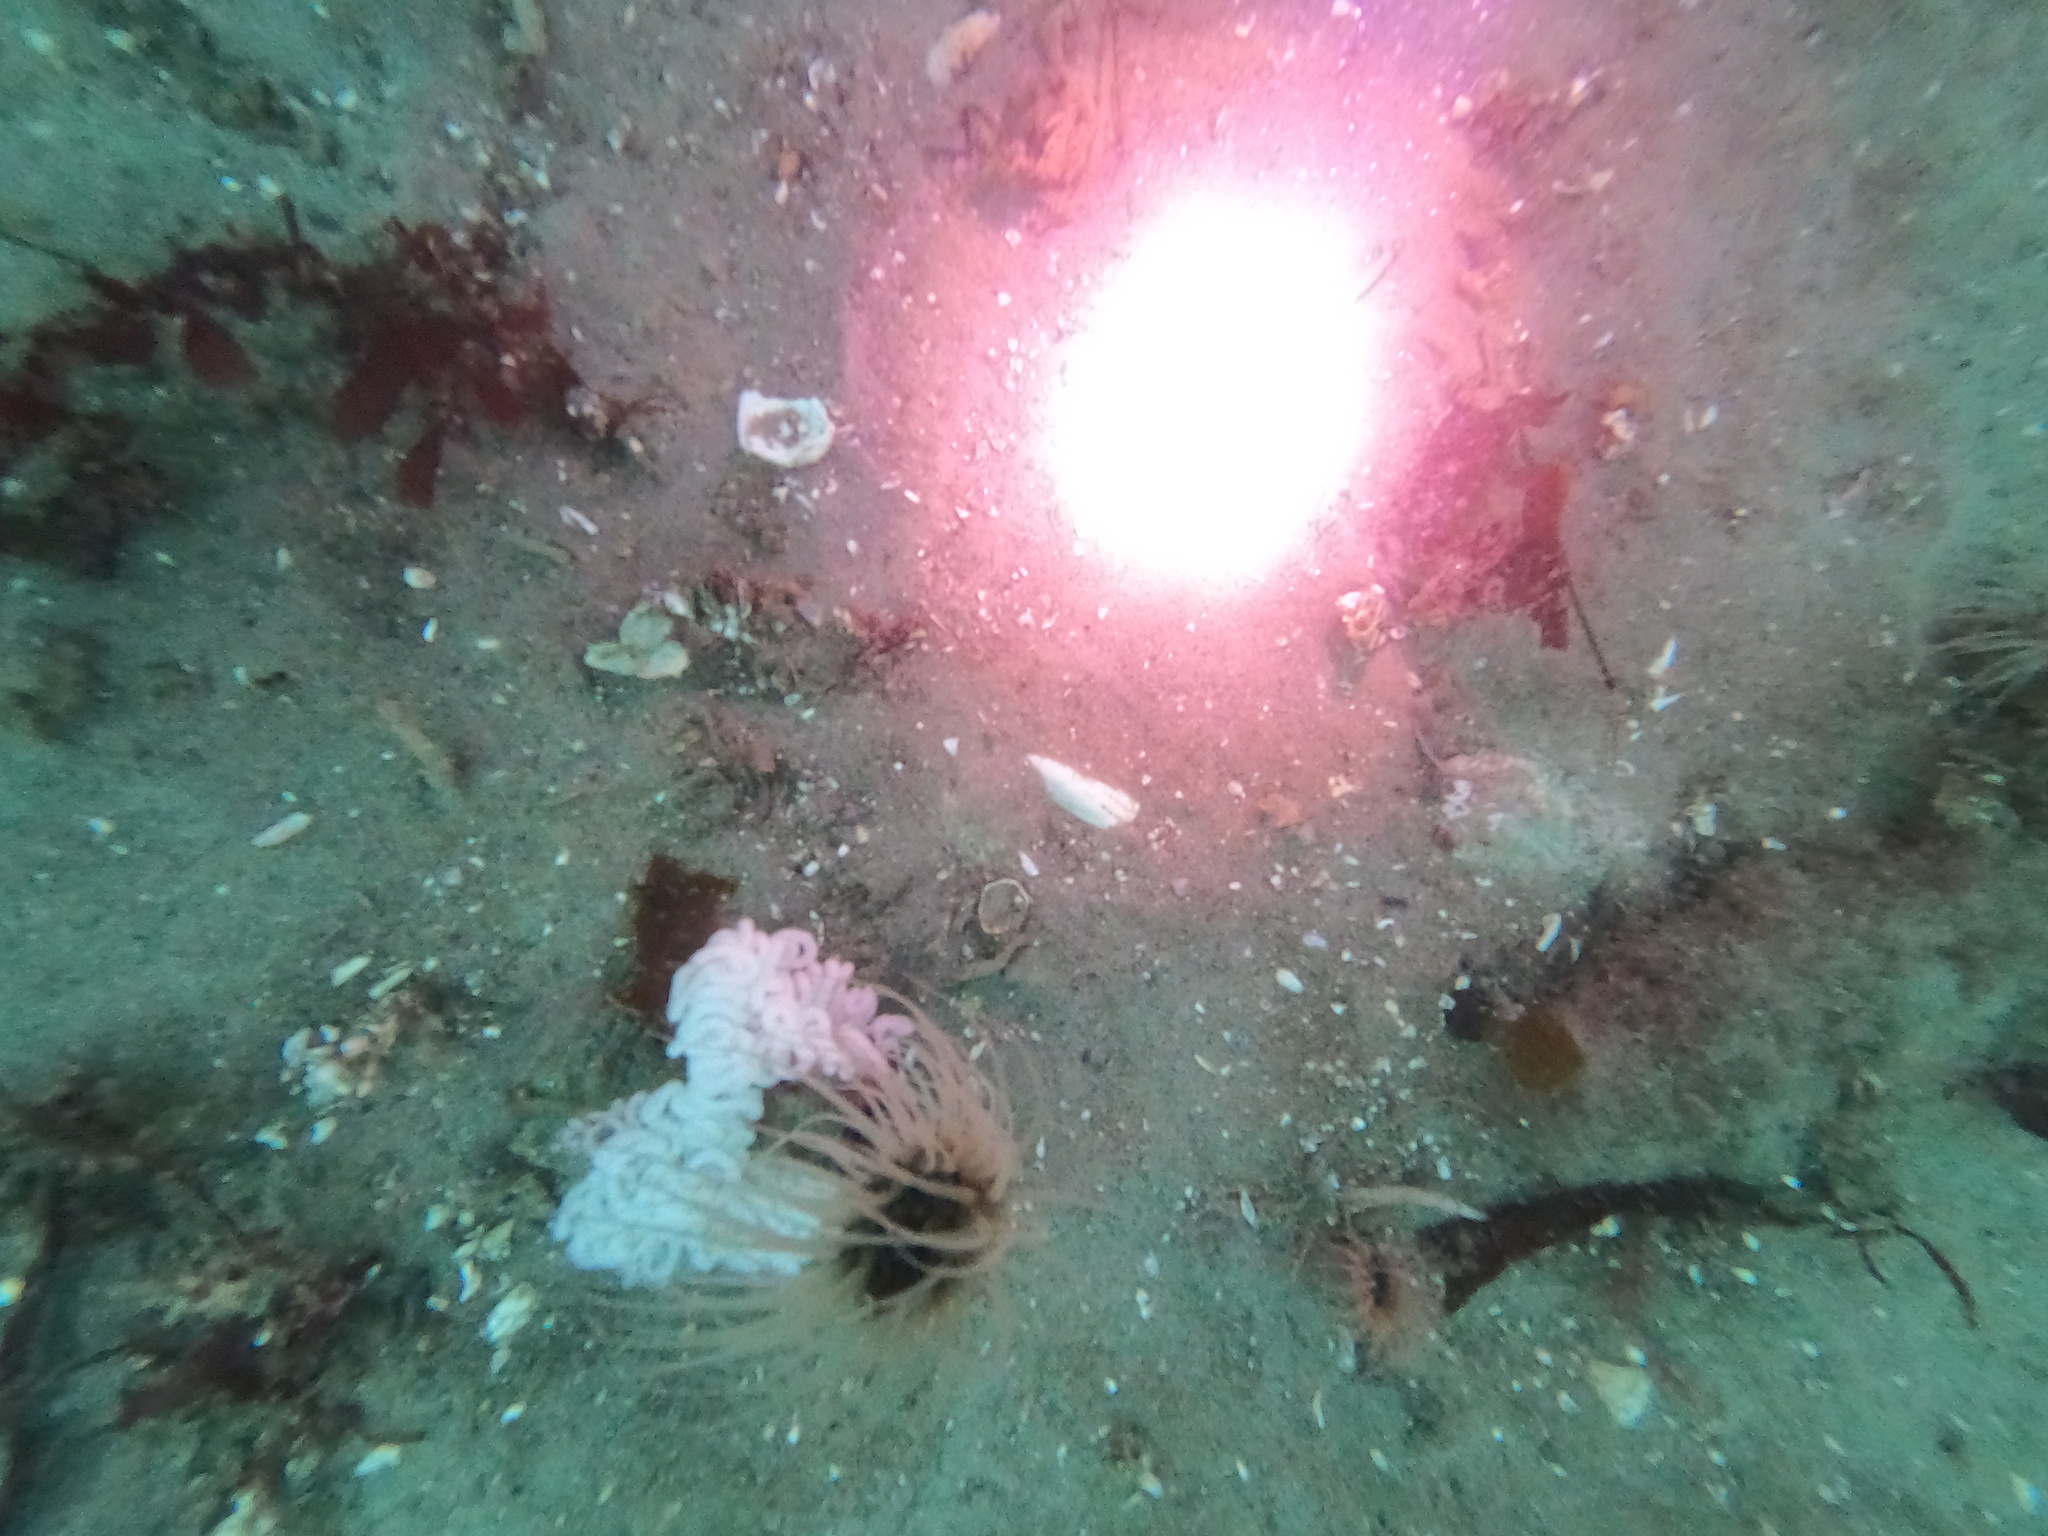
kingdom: Animalia
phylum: Mollusca
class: Gastropoda
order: Nudibranchia
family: Dendronotidae
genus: Dendronotus
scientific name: Dendronotus iris
